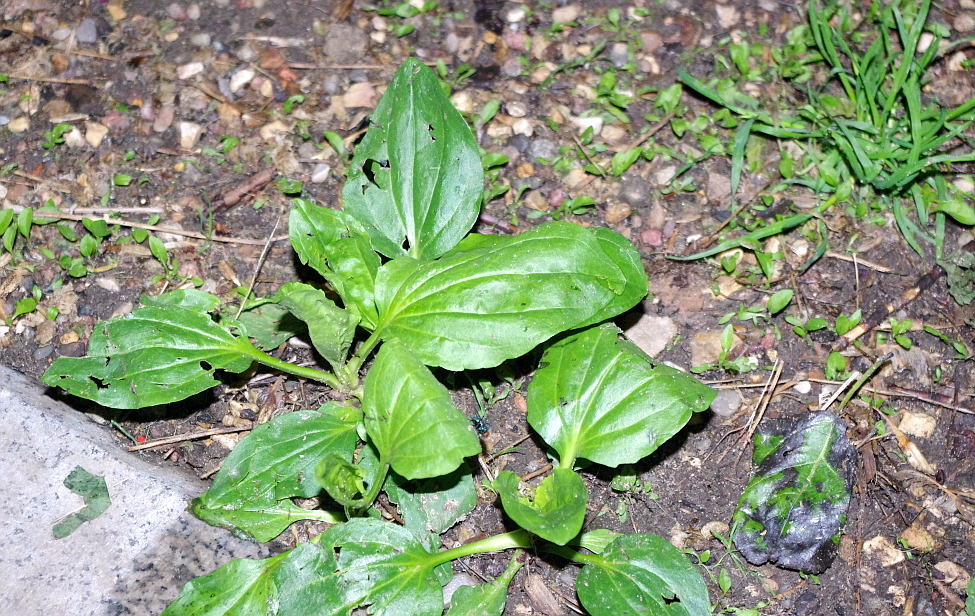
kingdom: Plantae
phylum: Tracheophyta
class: Magnoliopsida
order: Lamiales
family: Plantaginaceae
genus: Plantago
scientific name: Plantago major
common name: Common plantain
